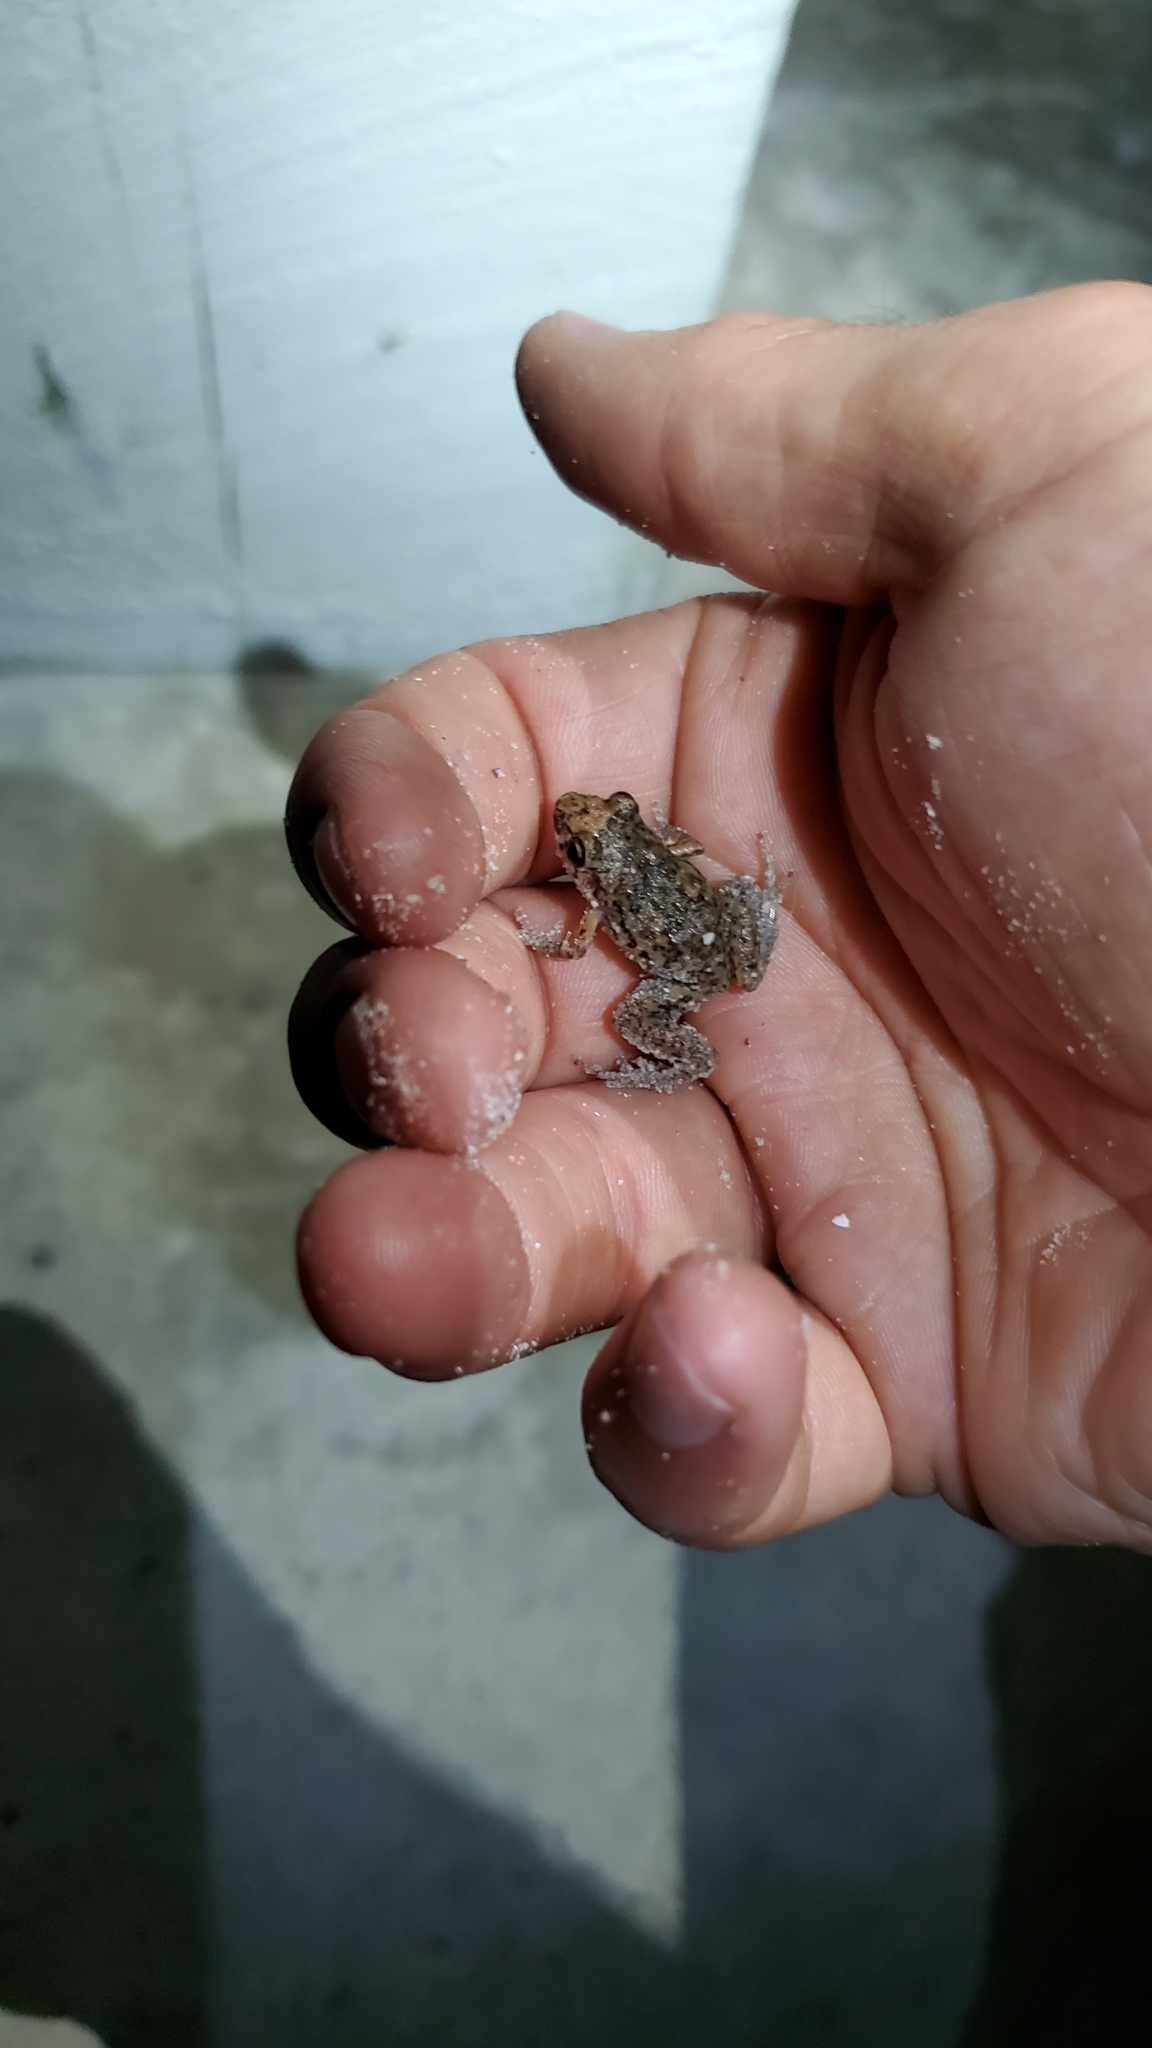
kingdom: Animalia
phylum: Chordata
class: Amphibia
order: Anura
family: Eleutherodactylidae
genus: Eleutherodactylus
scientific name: Eleutherodactylus planirostris
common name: Greenhouse frog
